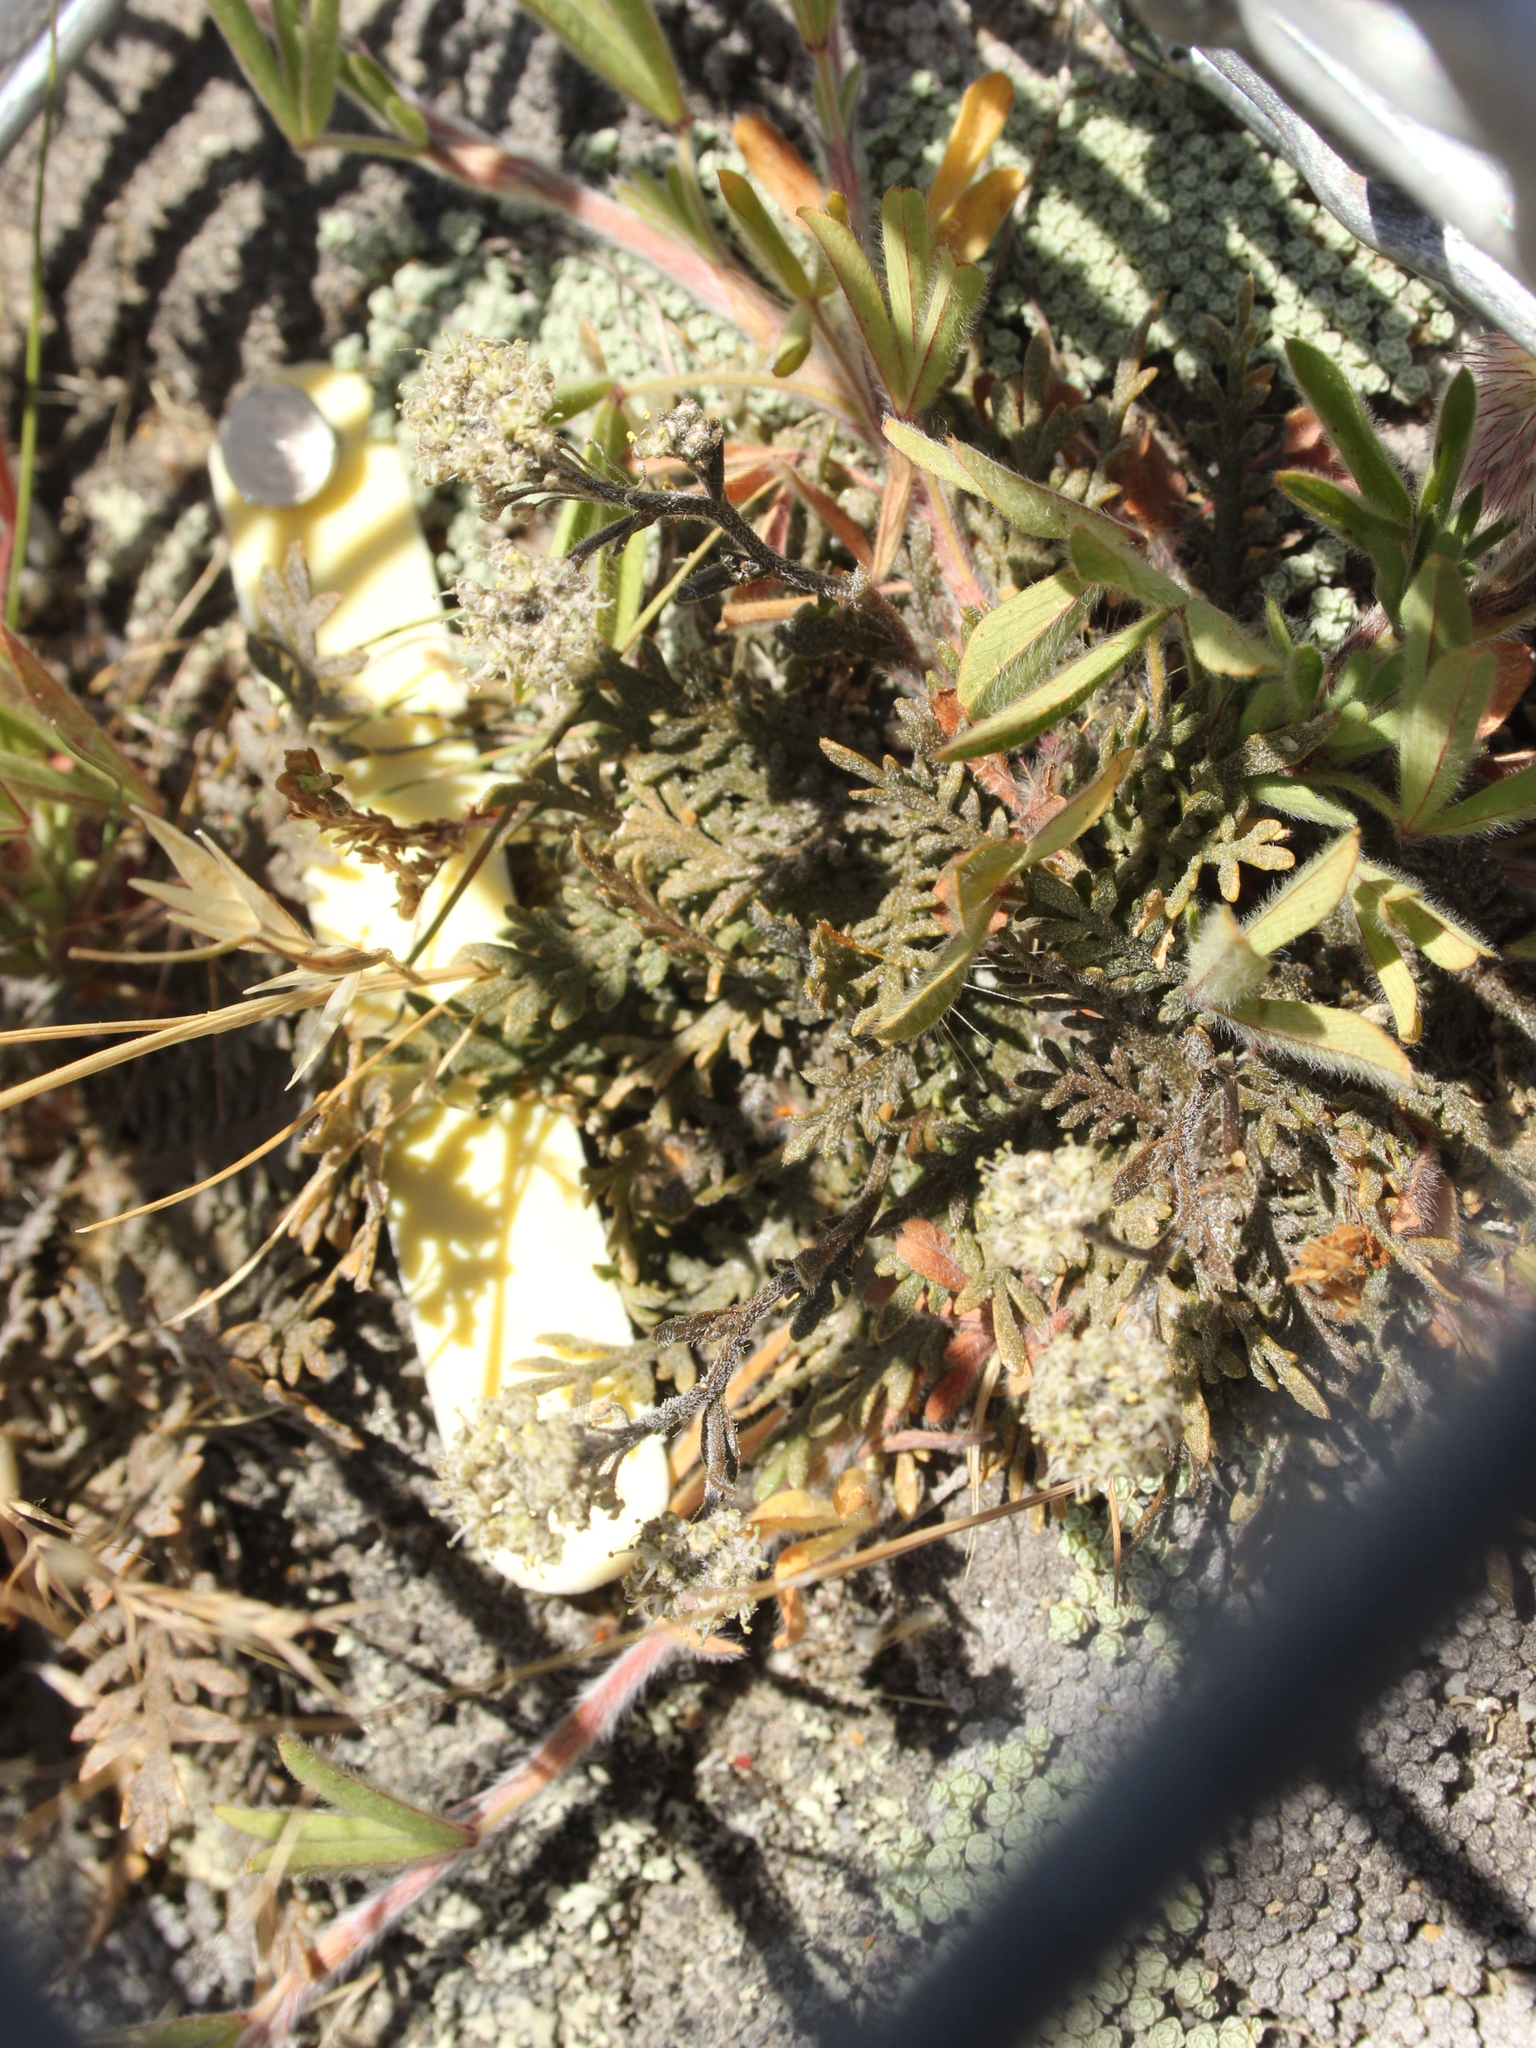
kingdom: Plantae
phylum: Tracheophyta
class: Magnoliopsida
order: Brassicales
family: Brassicaceae
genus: Lepidium
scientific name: Lepidium sisymbrioides
